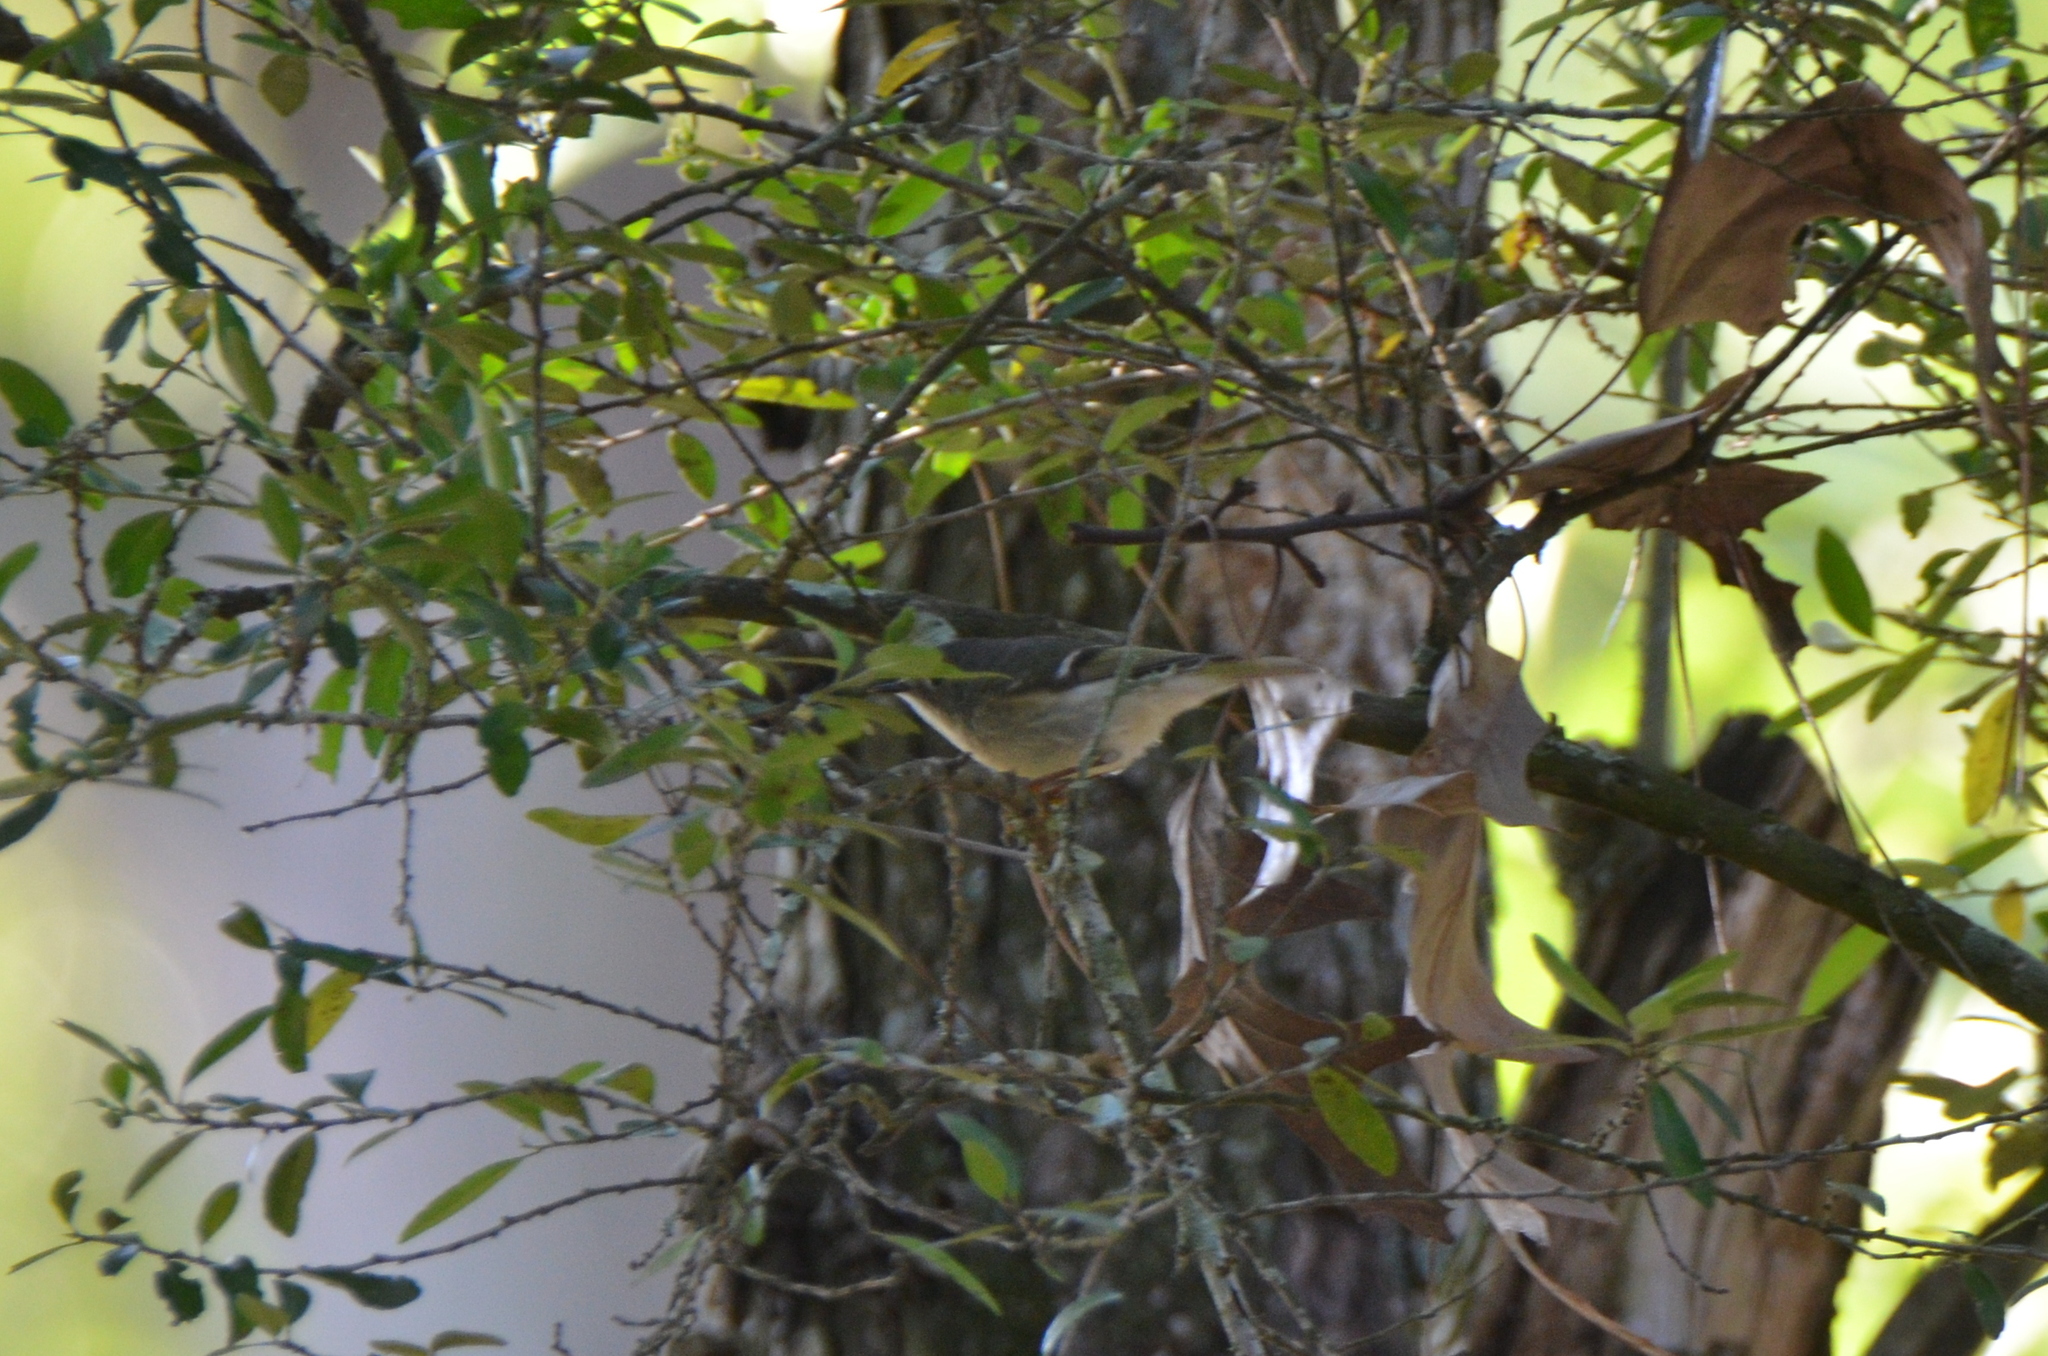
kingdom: Animalia
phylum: Chordata
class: Aves
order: Passeriformes
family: Regulidae
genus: Regulus
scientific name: Regulus calendula
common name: Ruby-crowned kinglet
